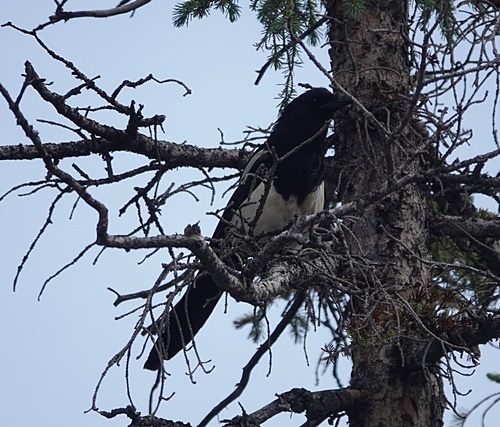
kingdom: Animalia
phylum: Chordata
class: Aves
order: Passeriformes
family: Corvidae
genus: Pica
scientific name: Pica hudsonia
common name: Black-billed magpie
